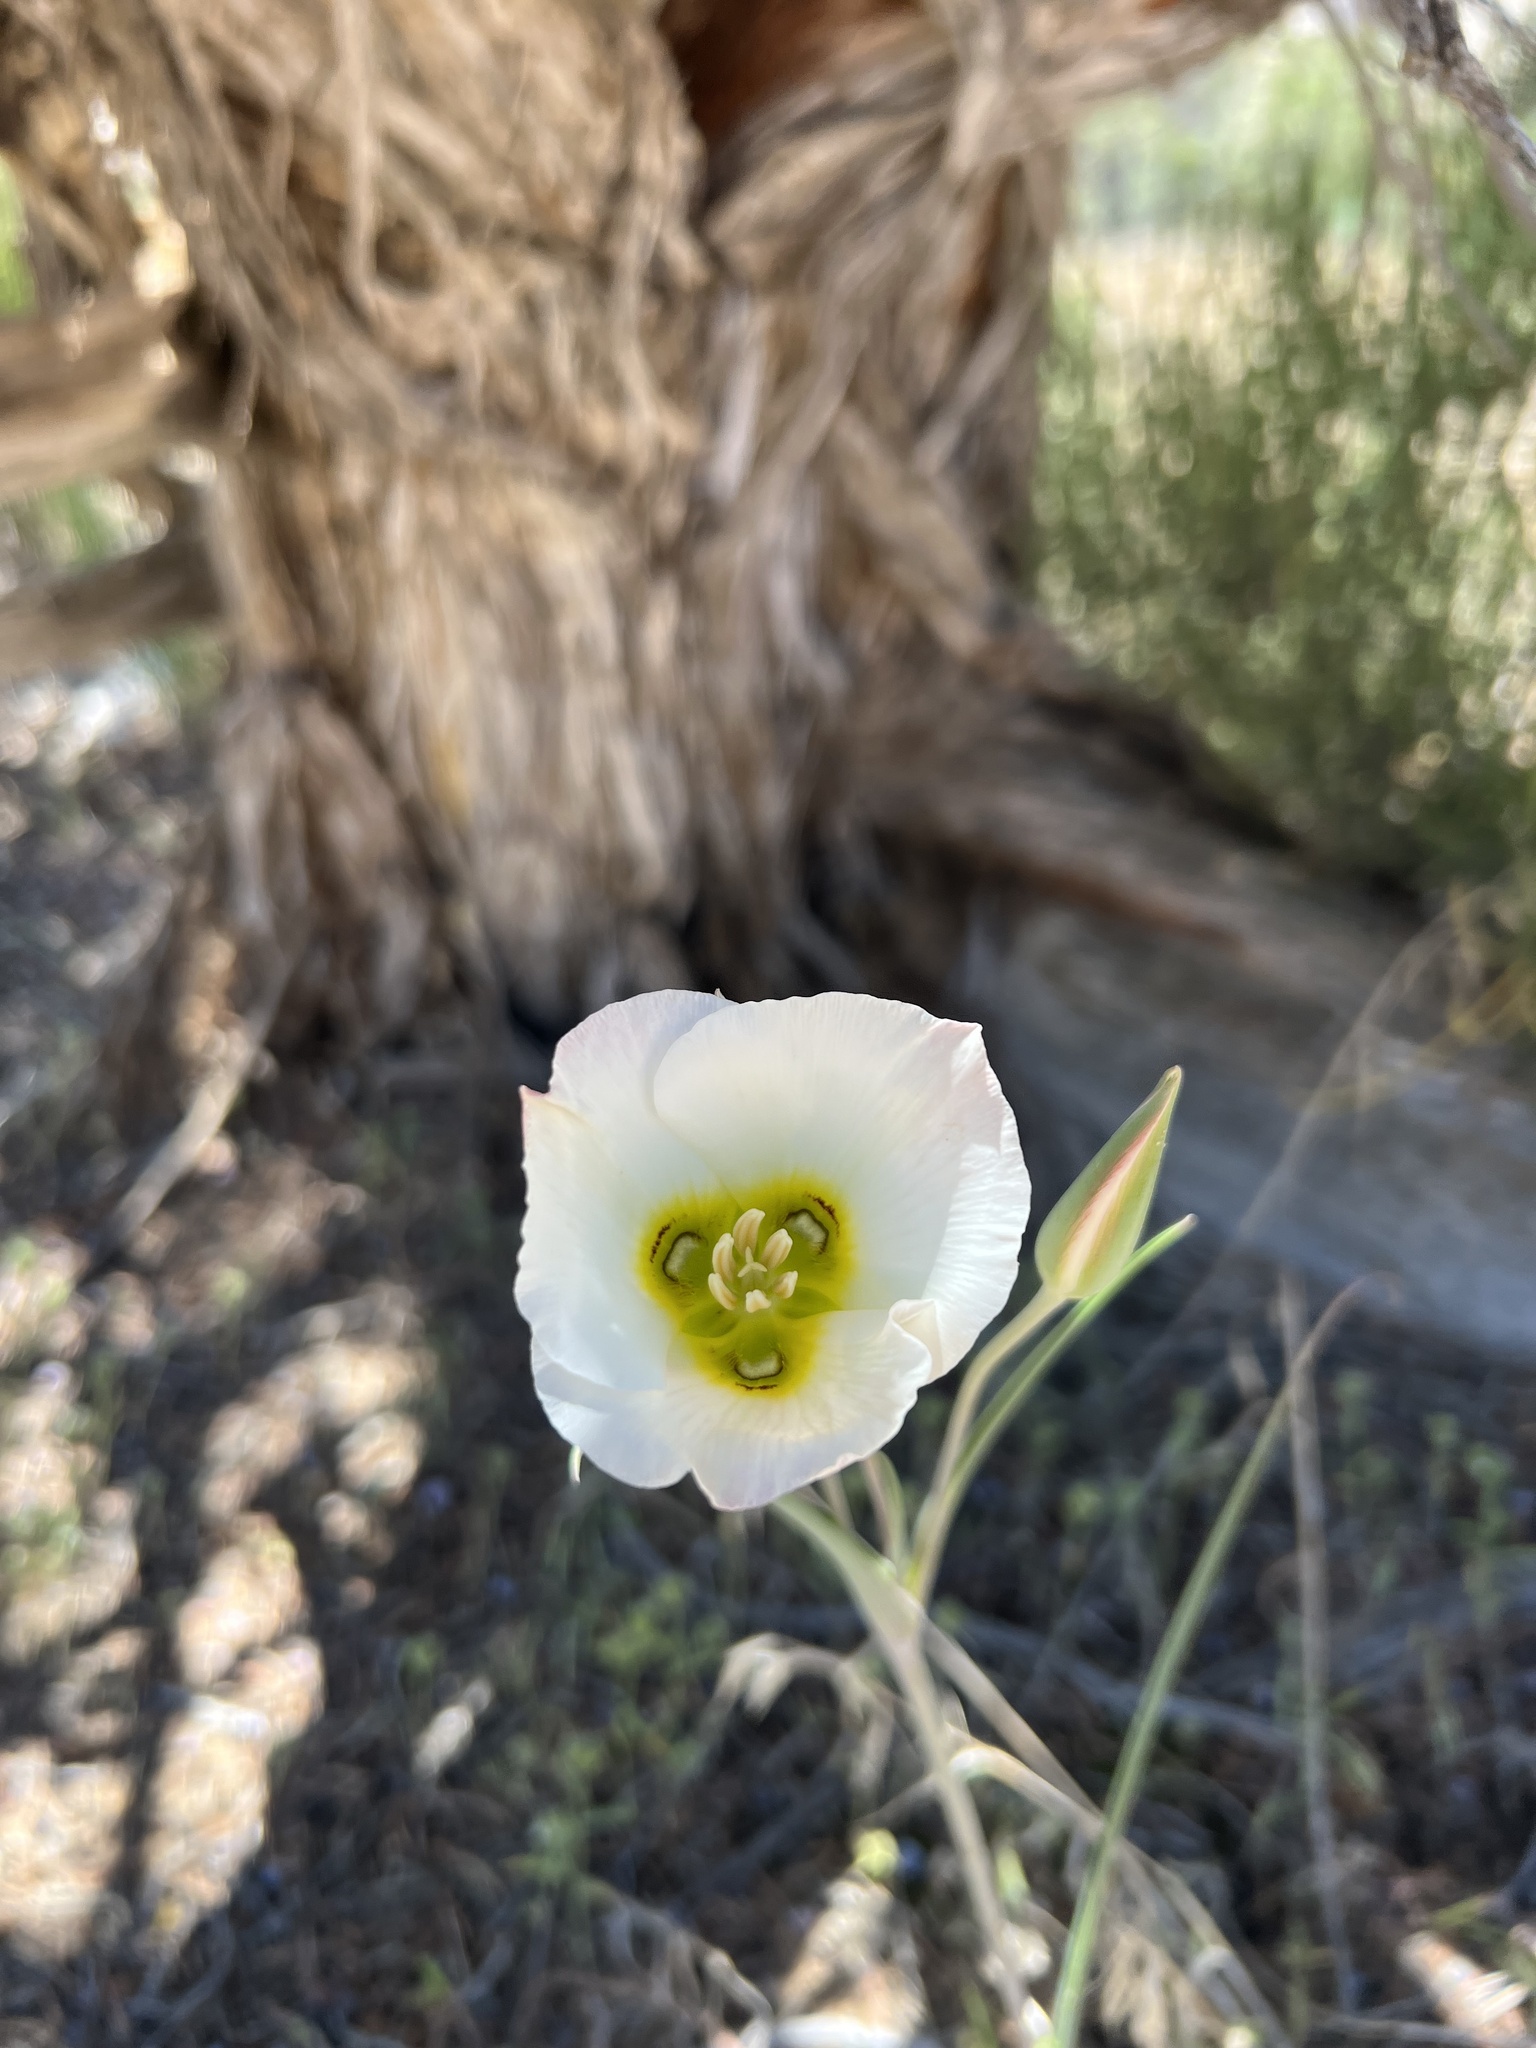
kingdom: Plantae
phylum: Tracheophyta
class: Liliopsida
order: Liliales
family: Liliaceae
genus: Calochortus
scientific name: Calochortus nuttallii
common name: Sego-lily
